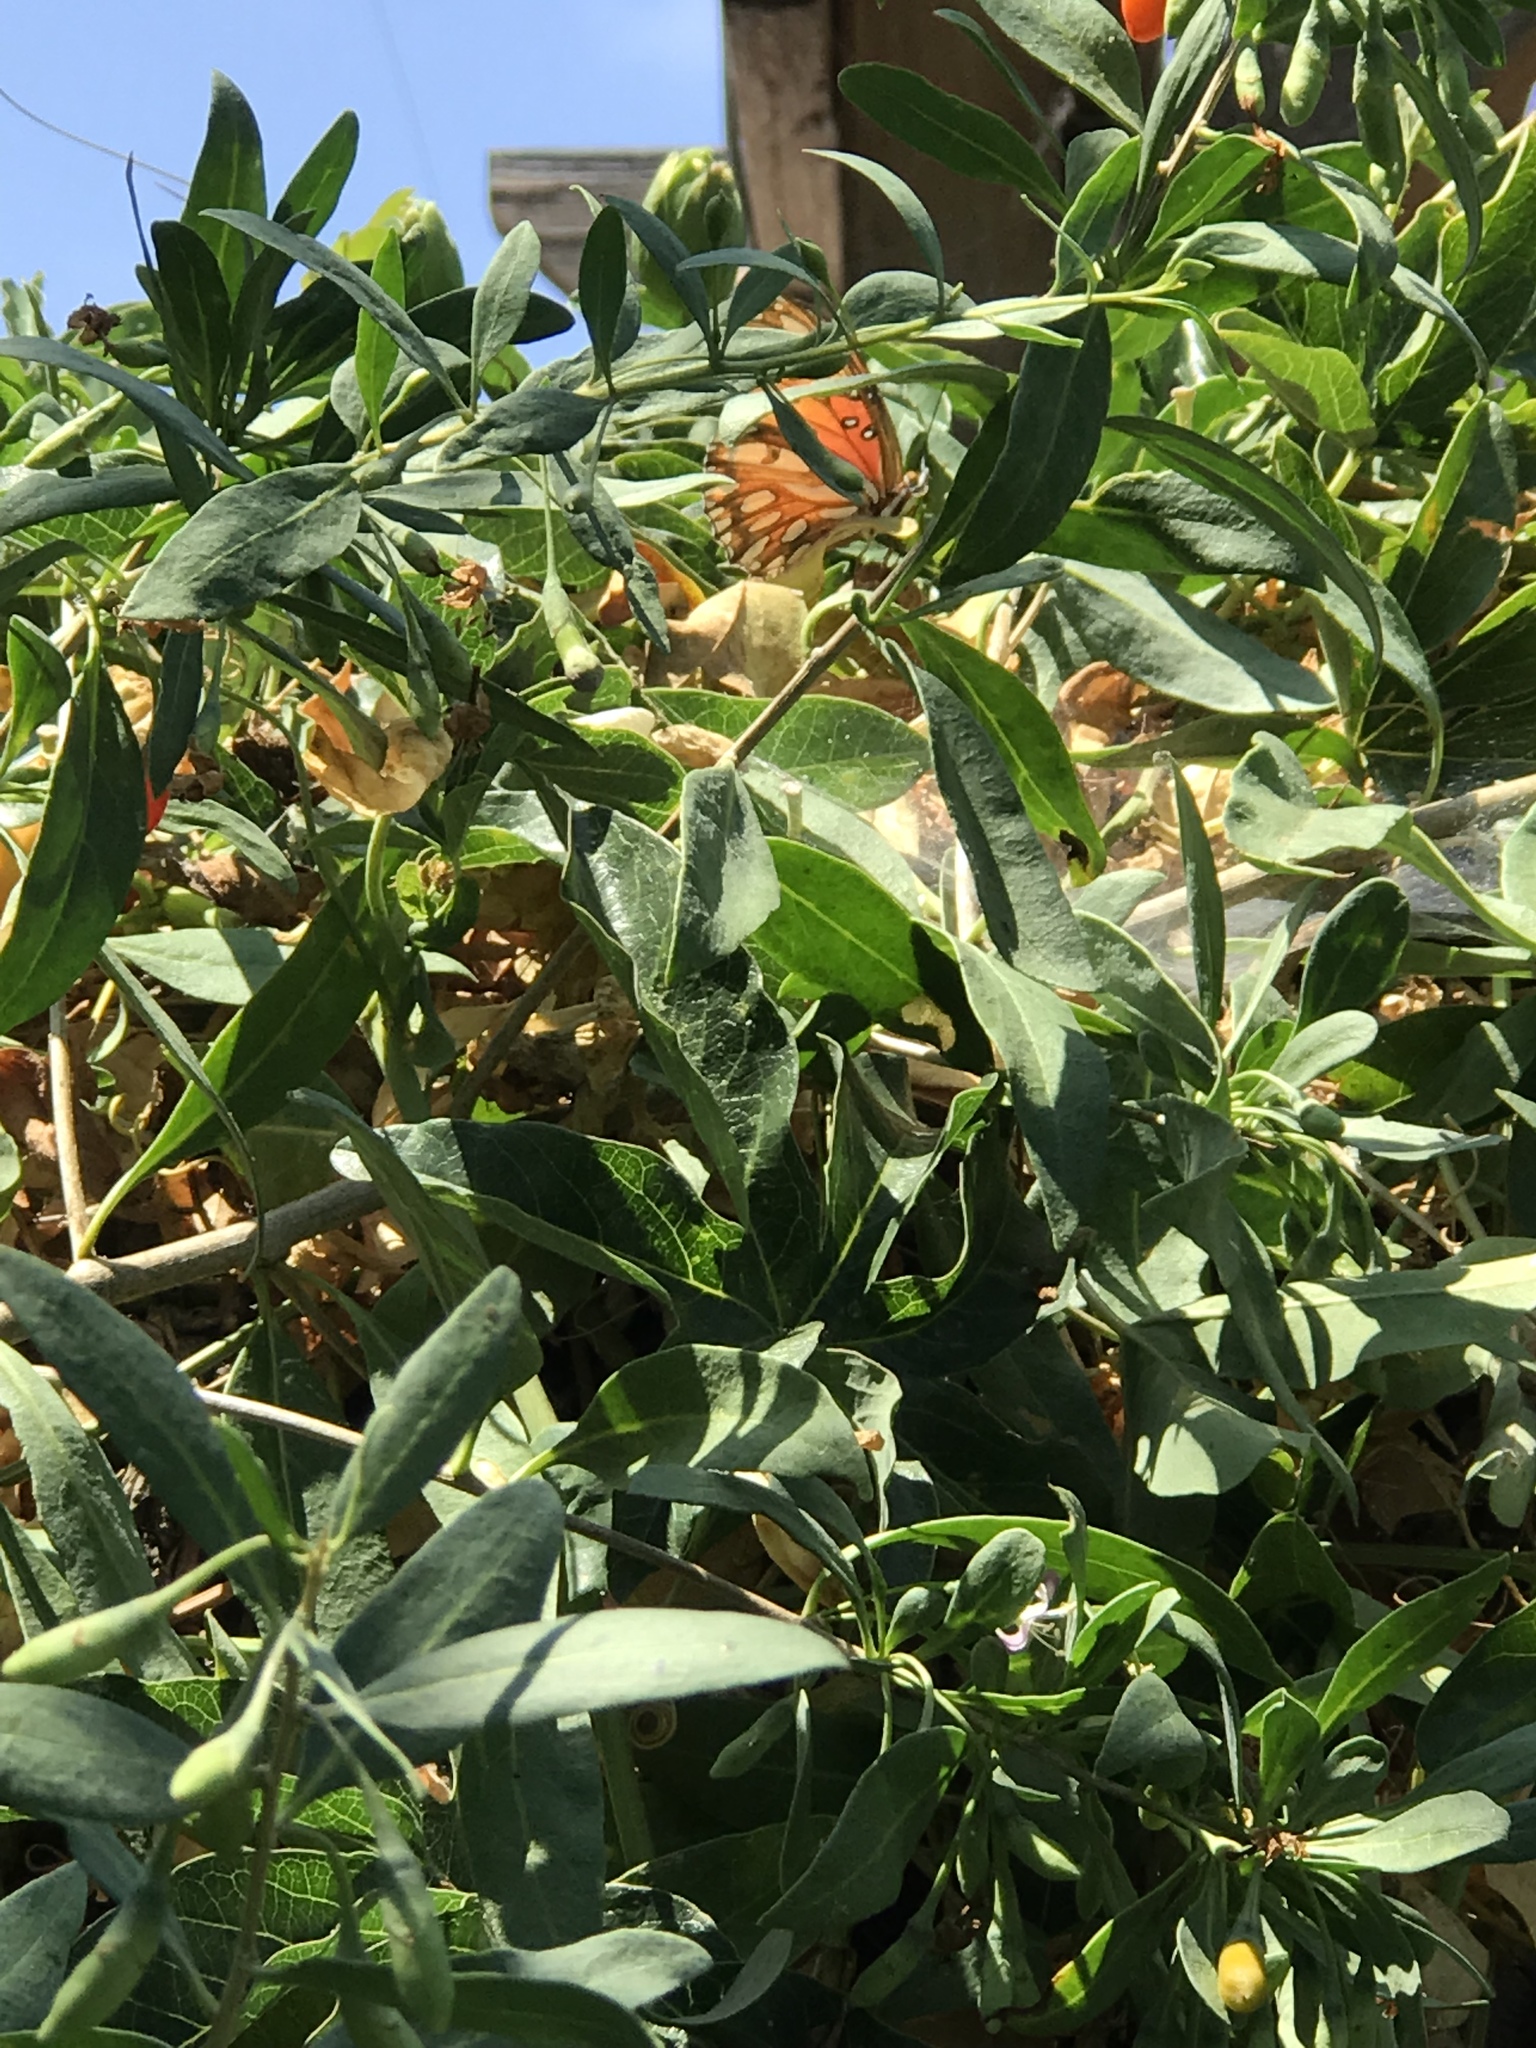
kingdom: Animalia
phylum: Arthropoda
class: Insecta
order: Lepidoptera
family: Nymphalidae
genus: Dione
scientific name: Dione vanillae
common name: Gulf fritillary
